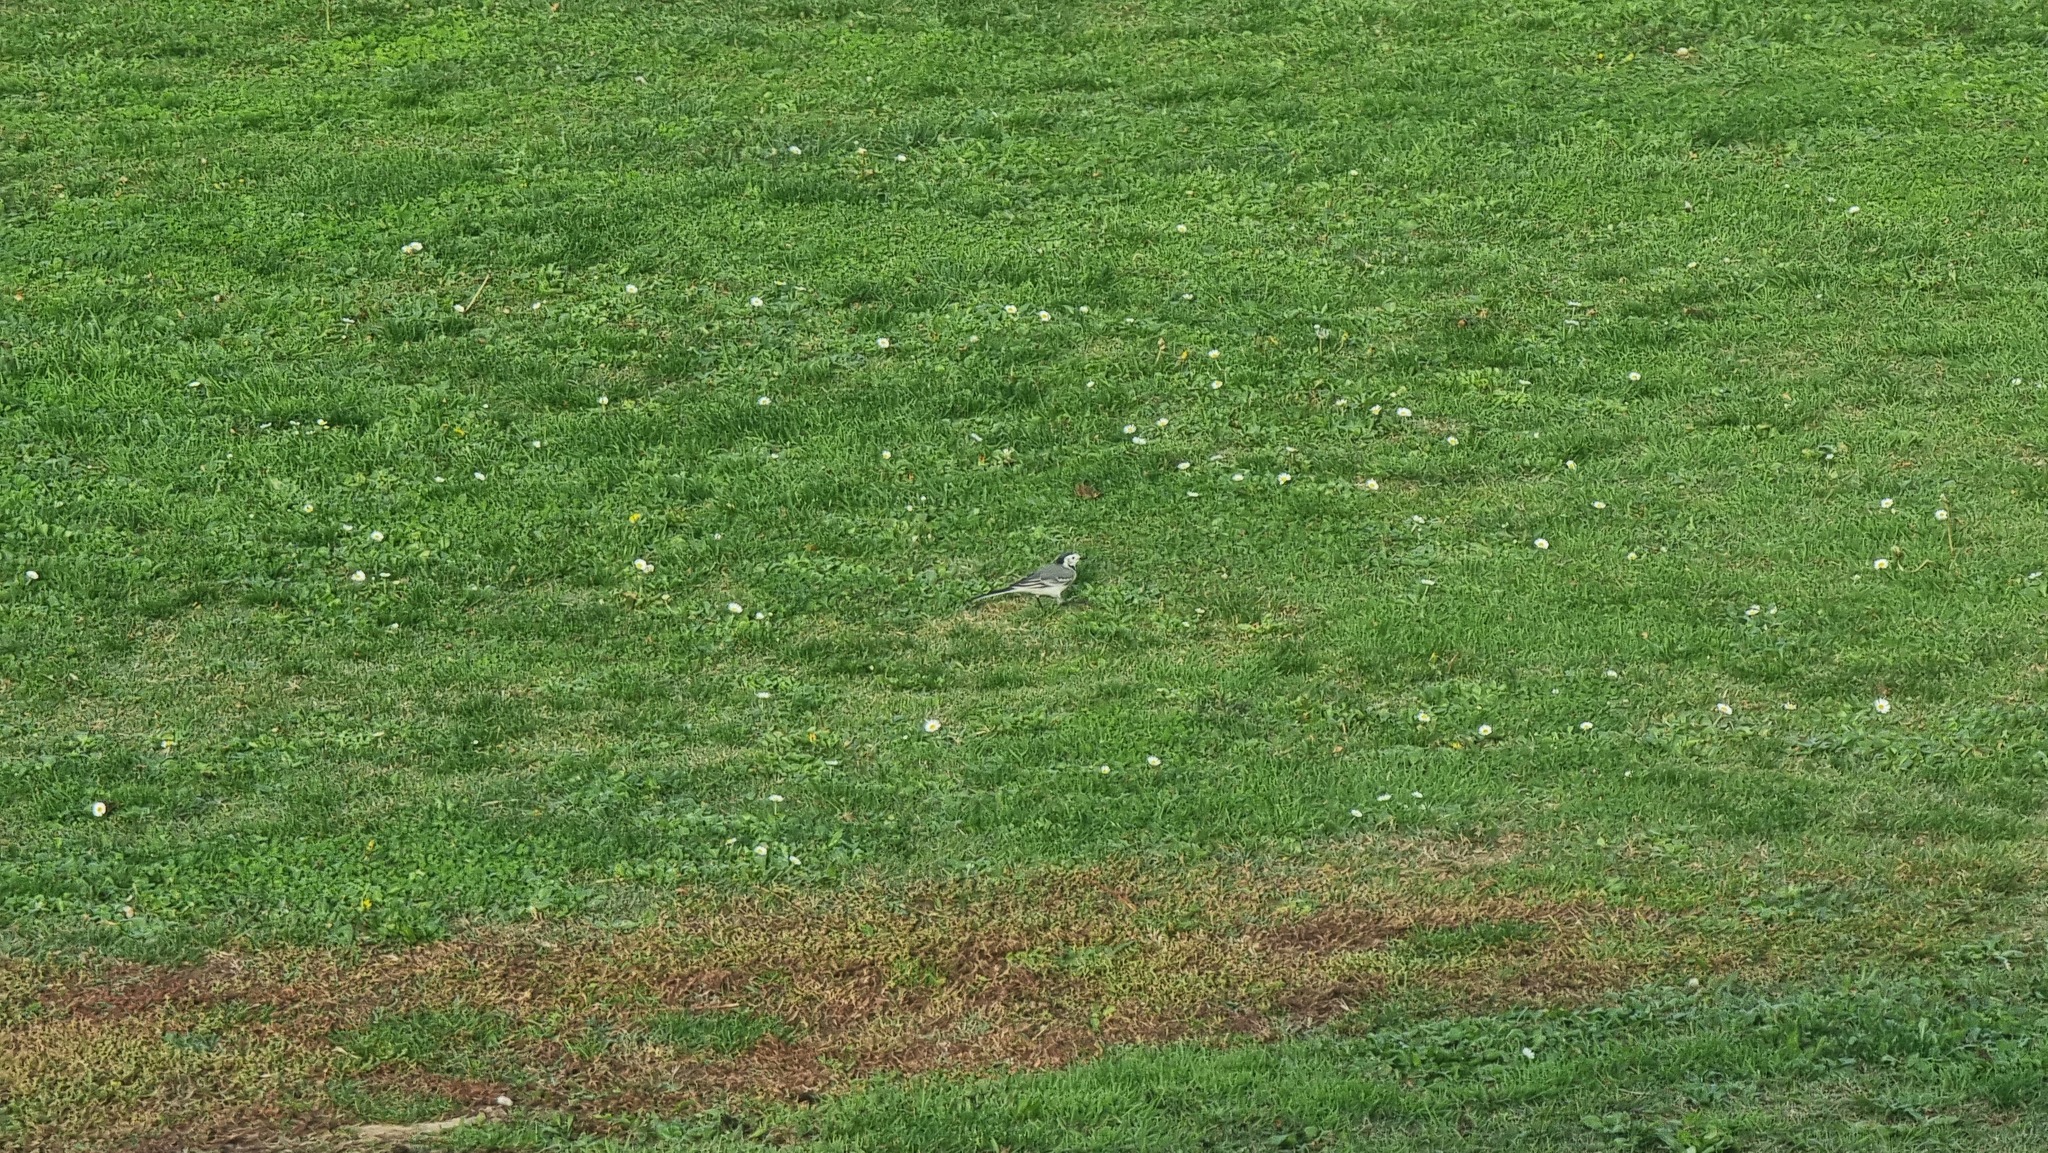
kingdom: Animalia
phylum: Chordata
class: Aves
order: Passeriformes
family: Motacillidae
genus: Motacilla
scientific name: Motacilla alba
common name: White wagtail
